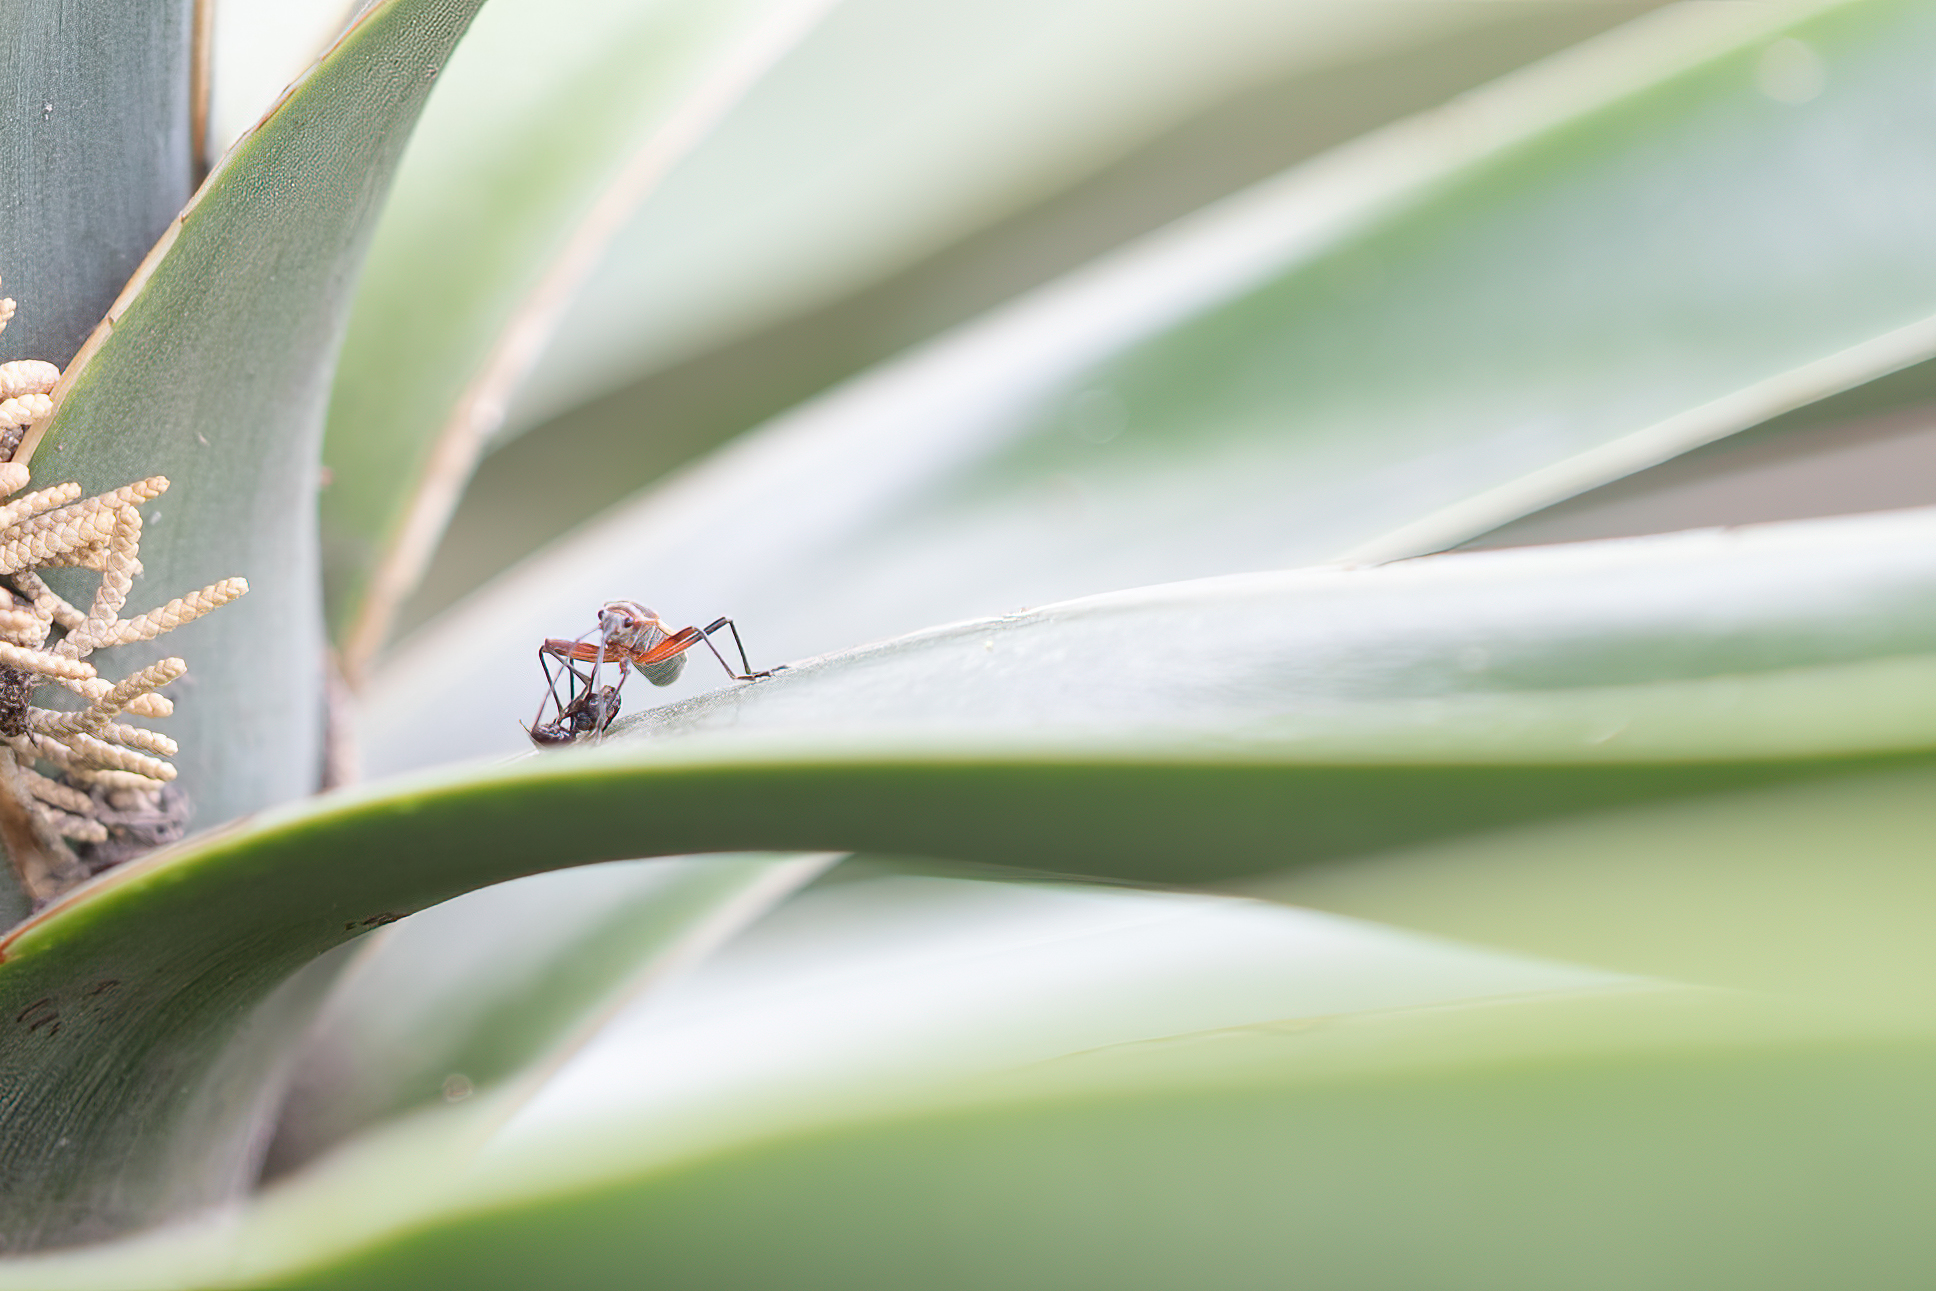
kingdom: Animalia
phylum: Arthropoda
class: Insecta
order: Hemiptera
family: Largidae
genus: Stenomacra
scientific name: Stenomacra marginella
